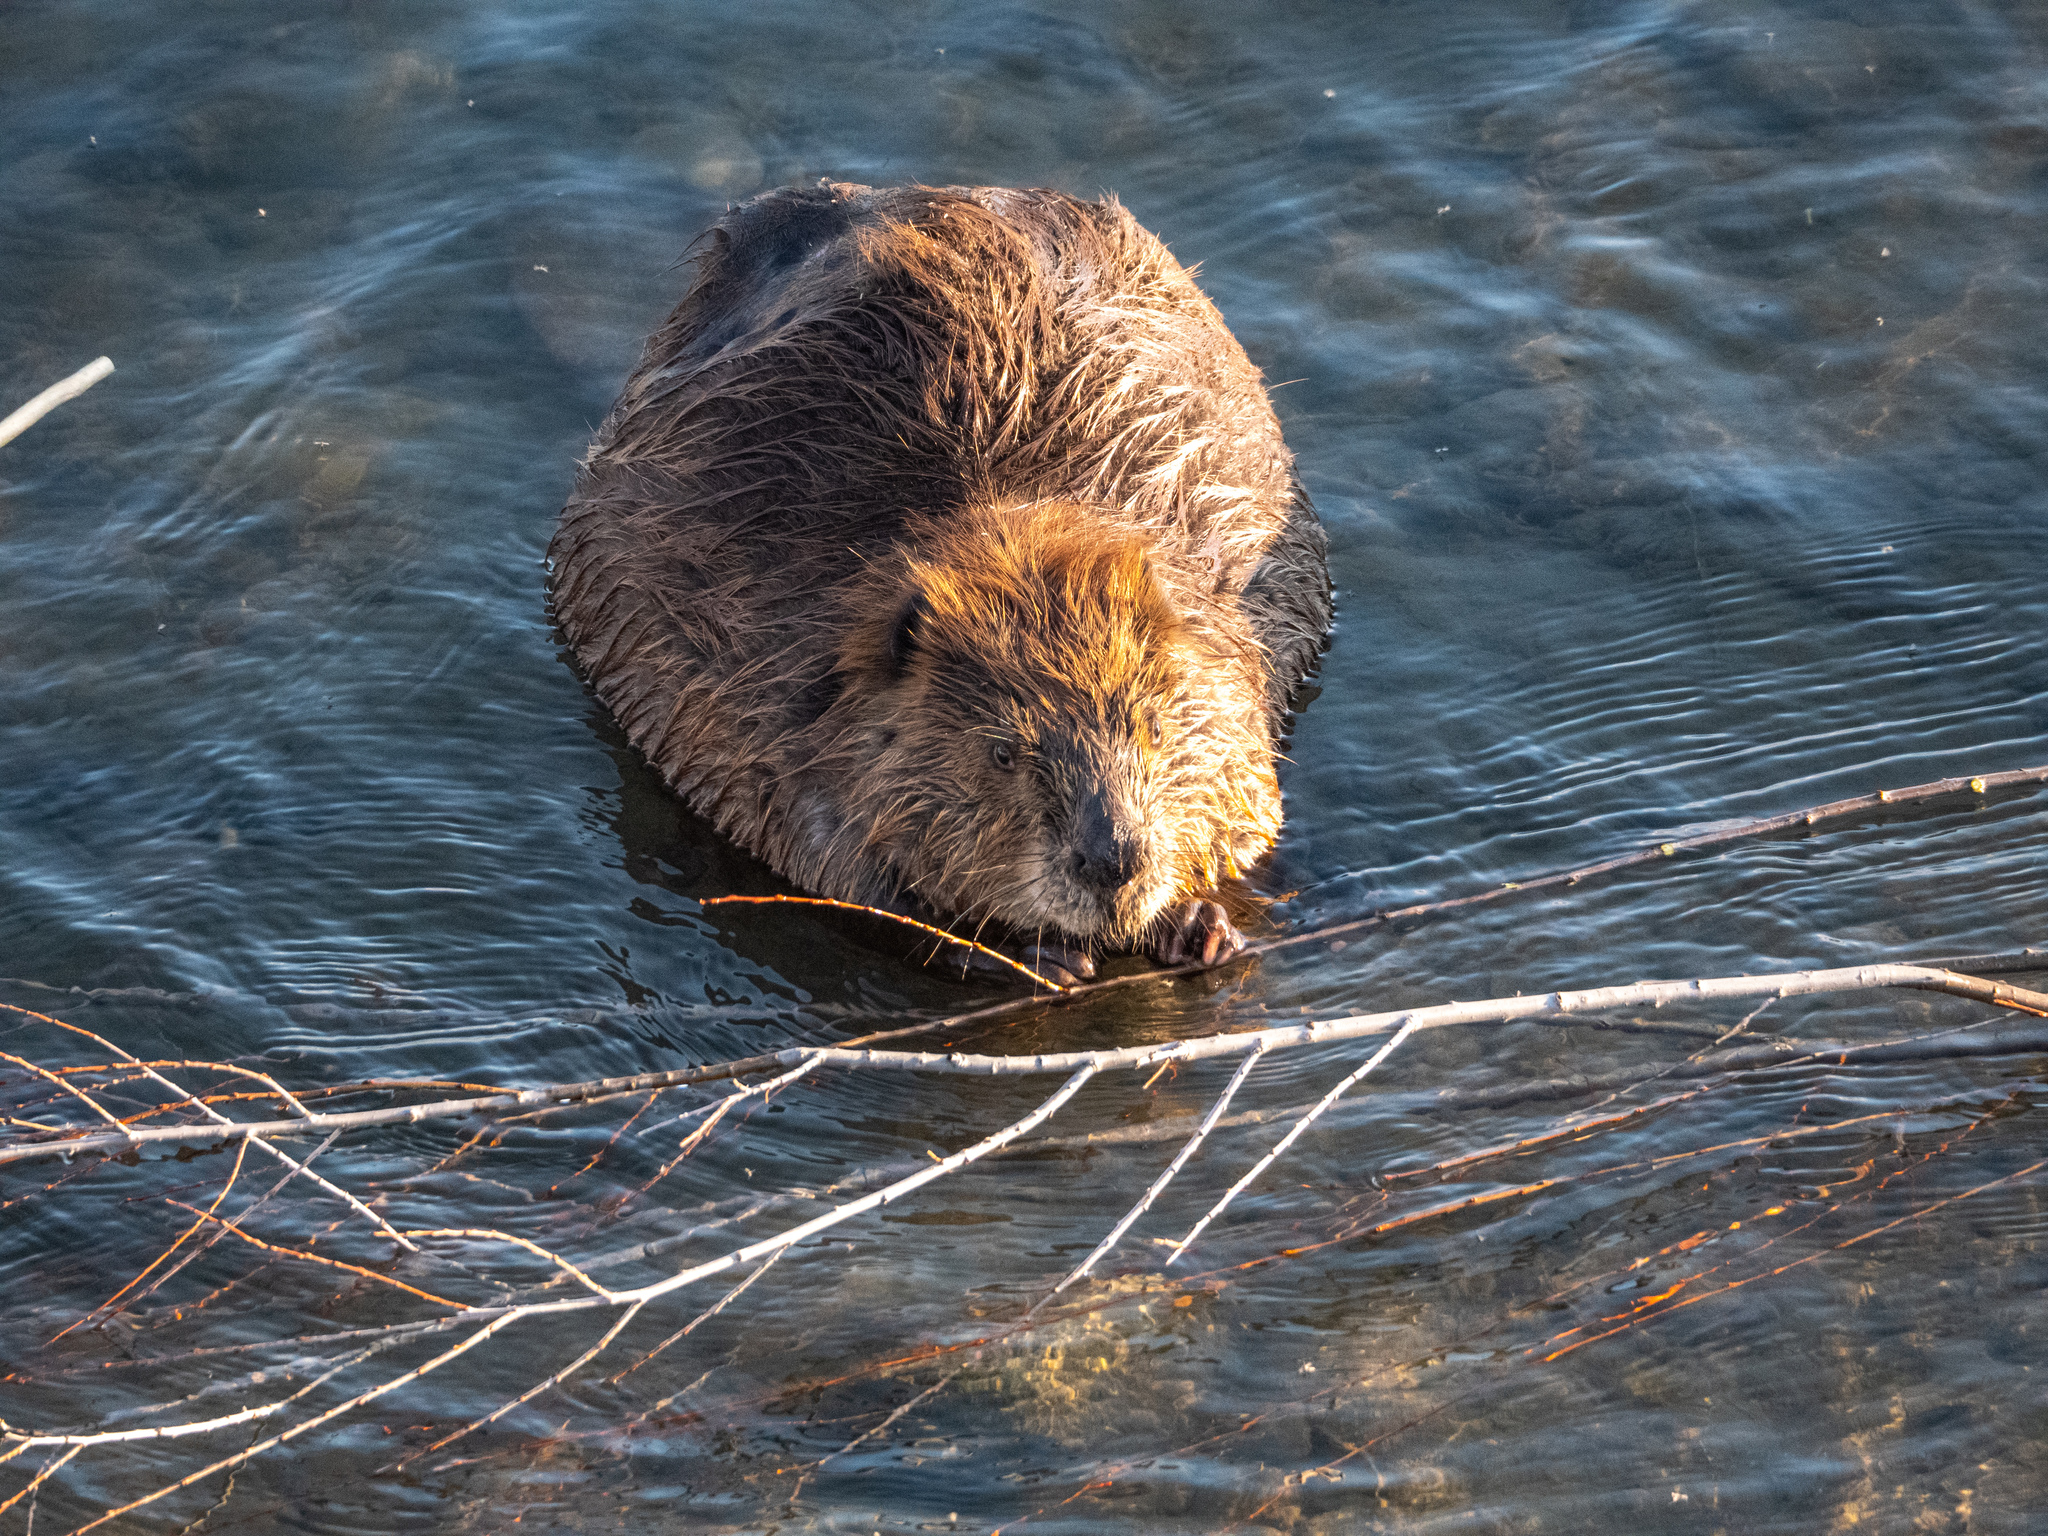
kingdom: Animalia
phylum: Chordata
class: Mammalia
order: Rodentia
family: Castoridae
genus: Castor
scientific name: Castor canadensis
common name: American beaver
